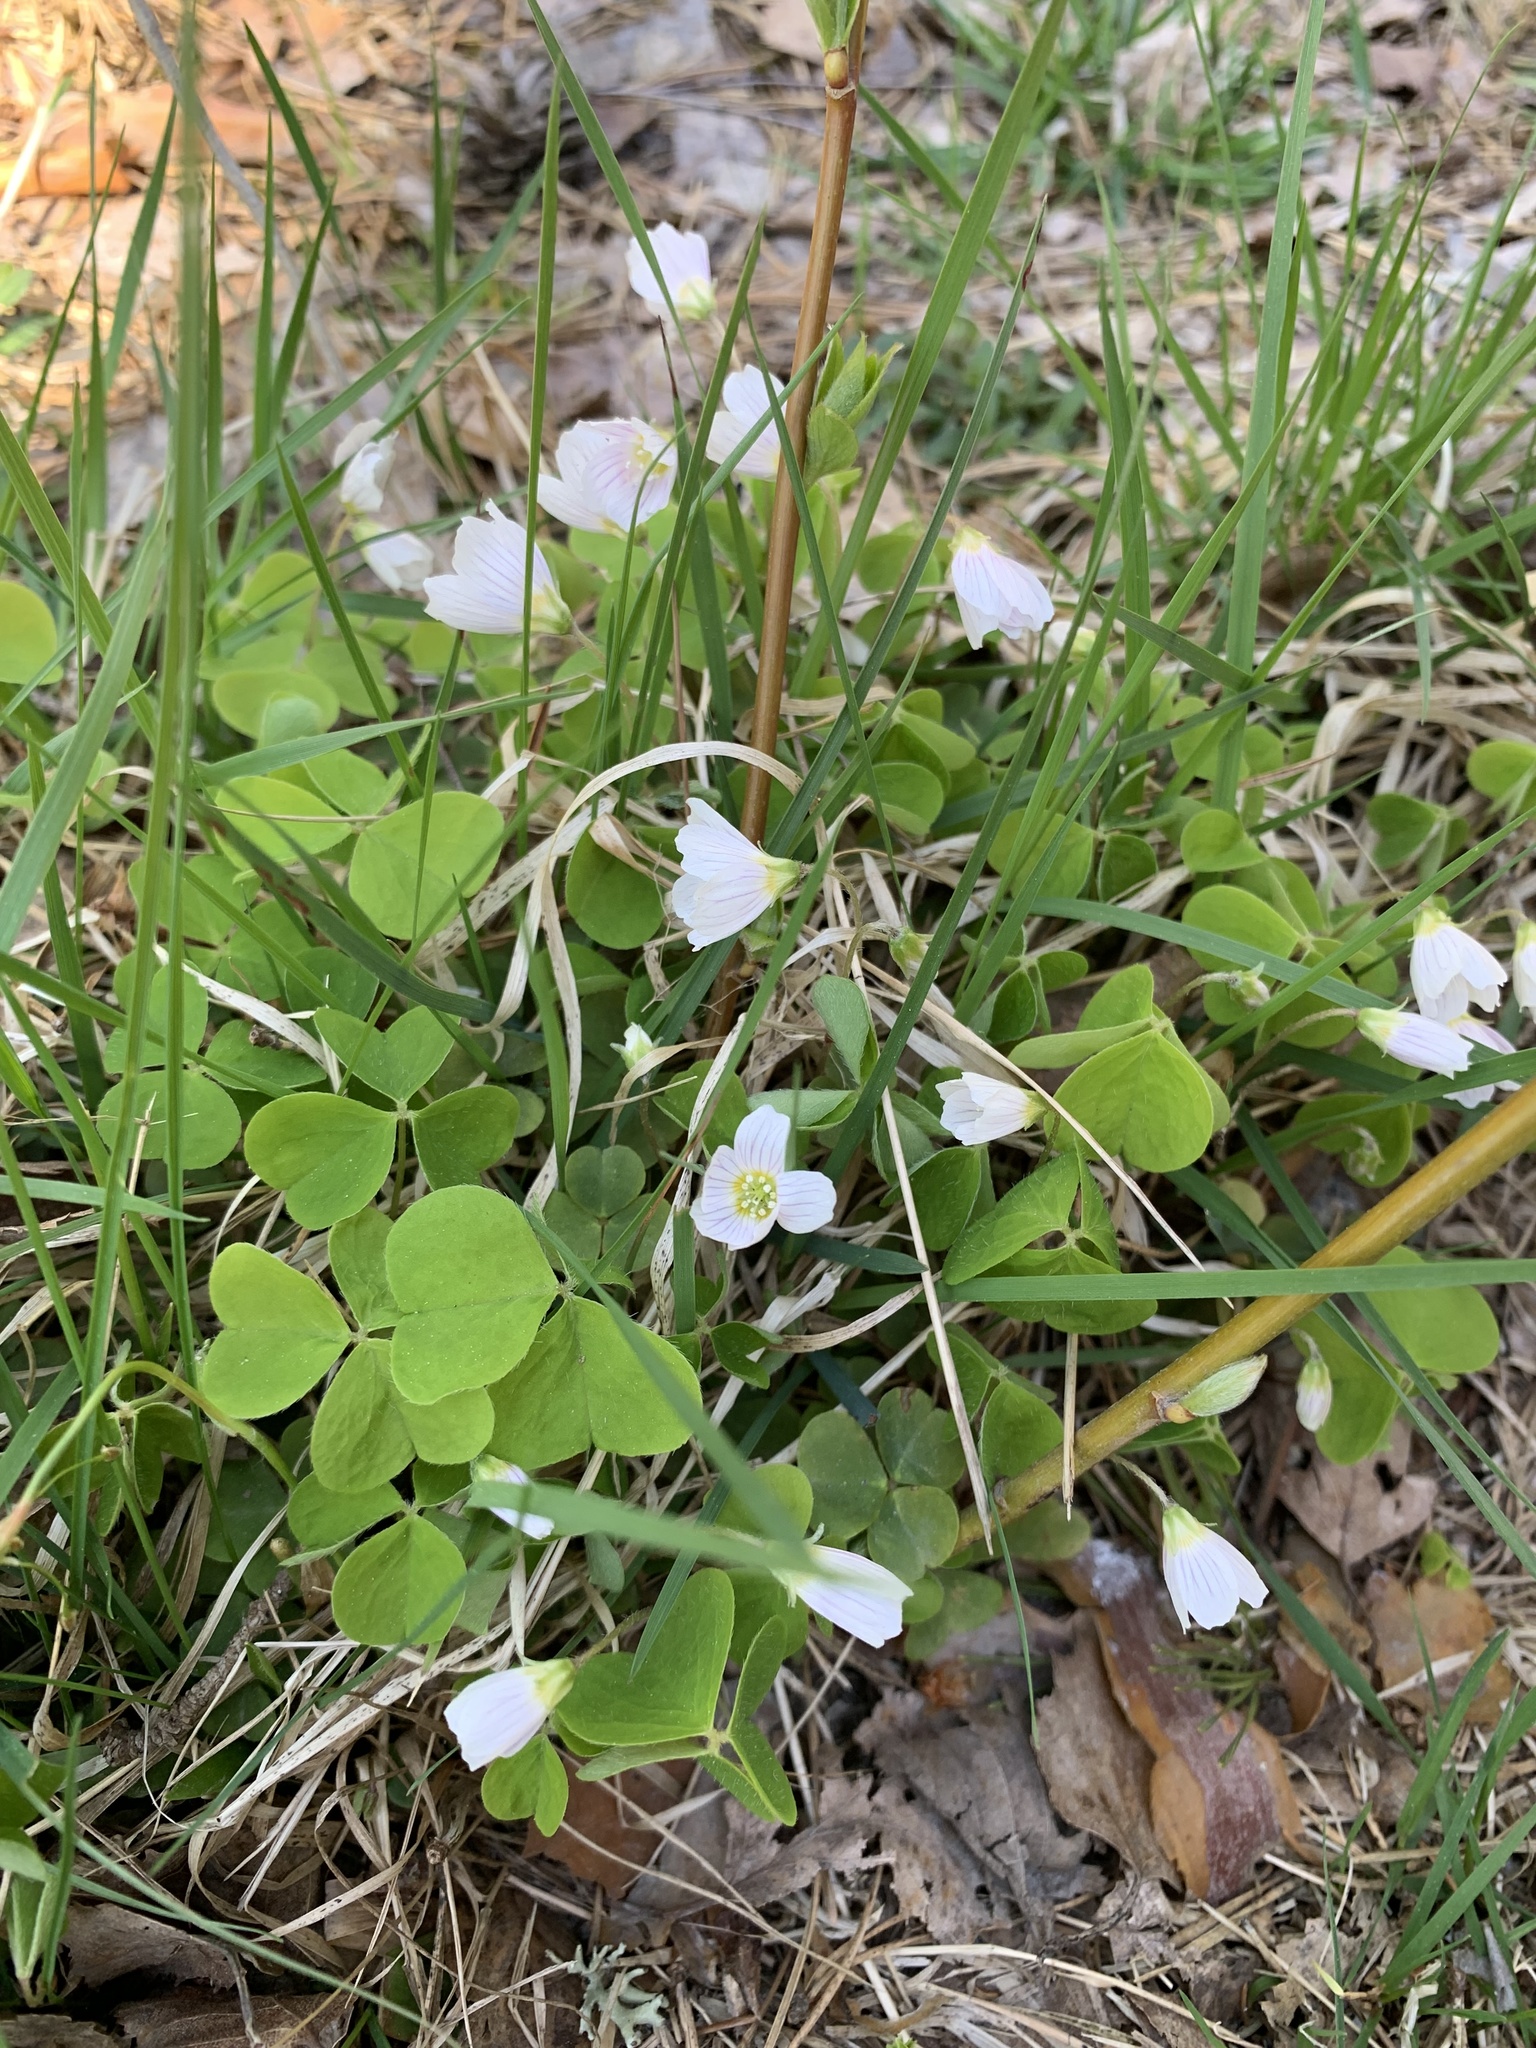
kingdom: Plantae
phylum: Tracheophyta
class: Magnoliopsida
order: Oxalidales
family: Oxalidaceae
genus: Oxalis
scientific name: Oxalis acetosella
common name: Wood-sorrel
